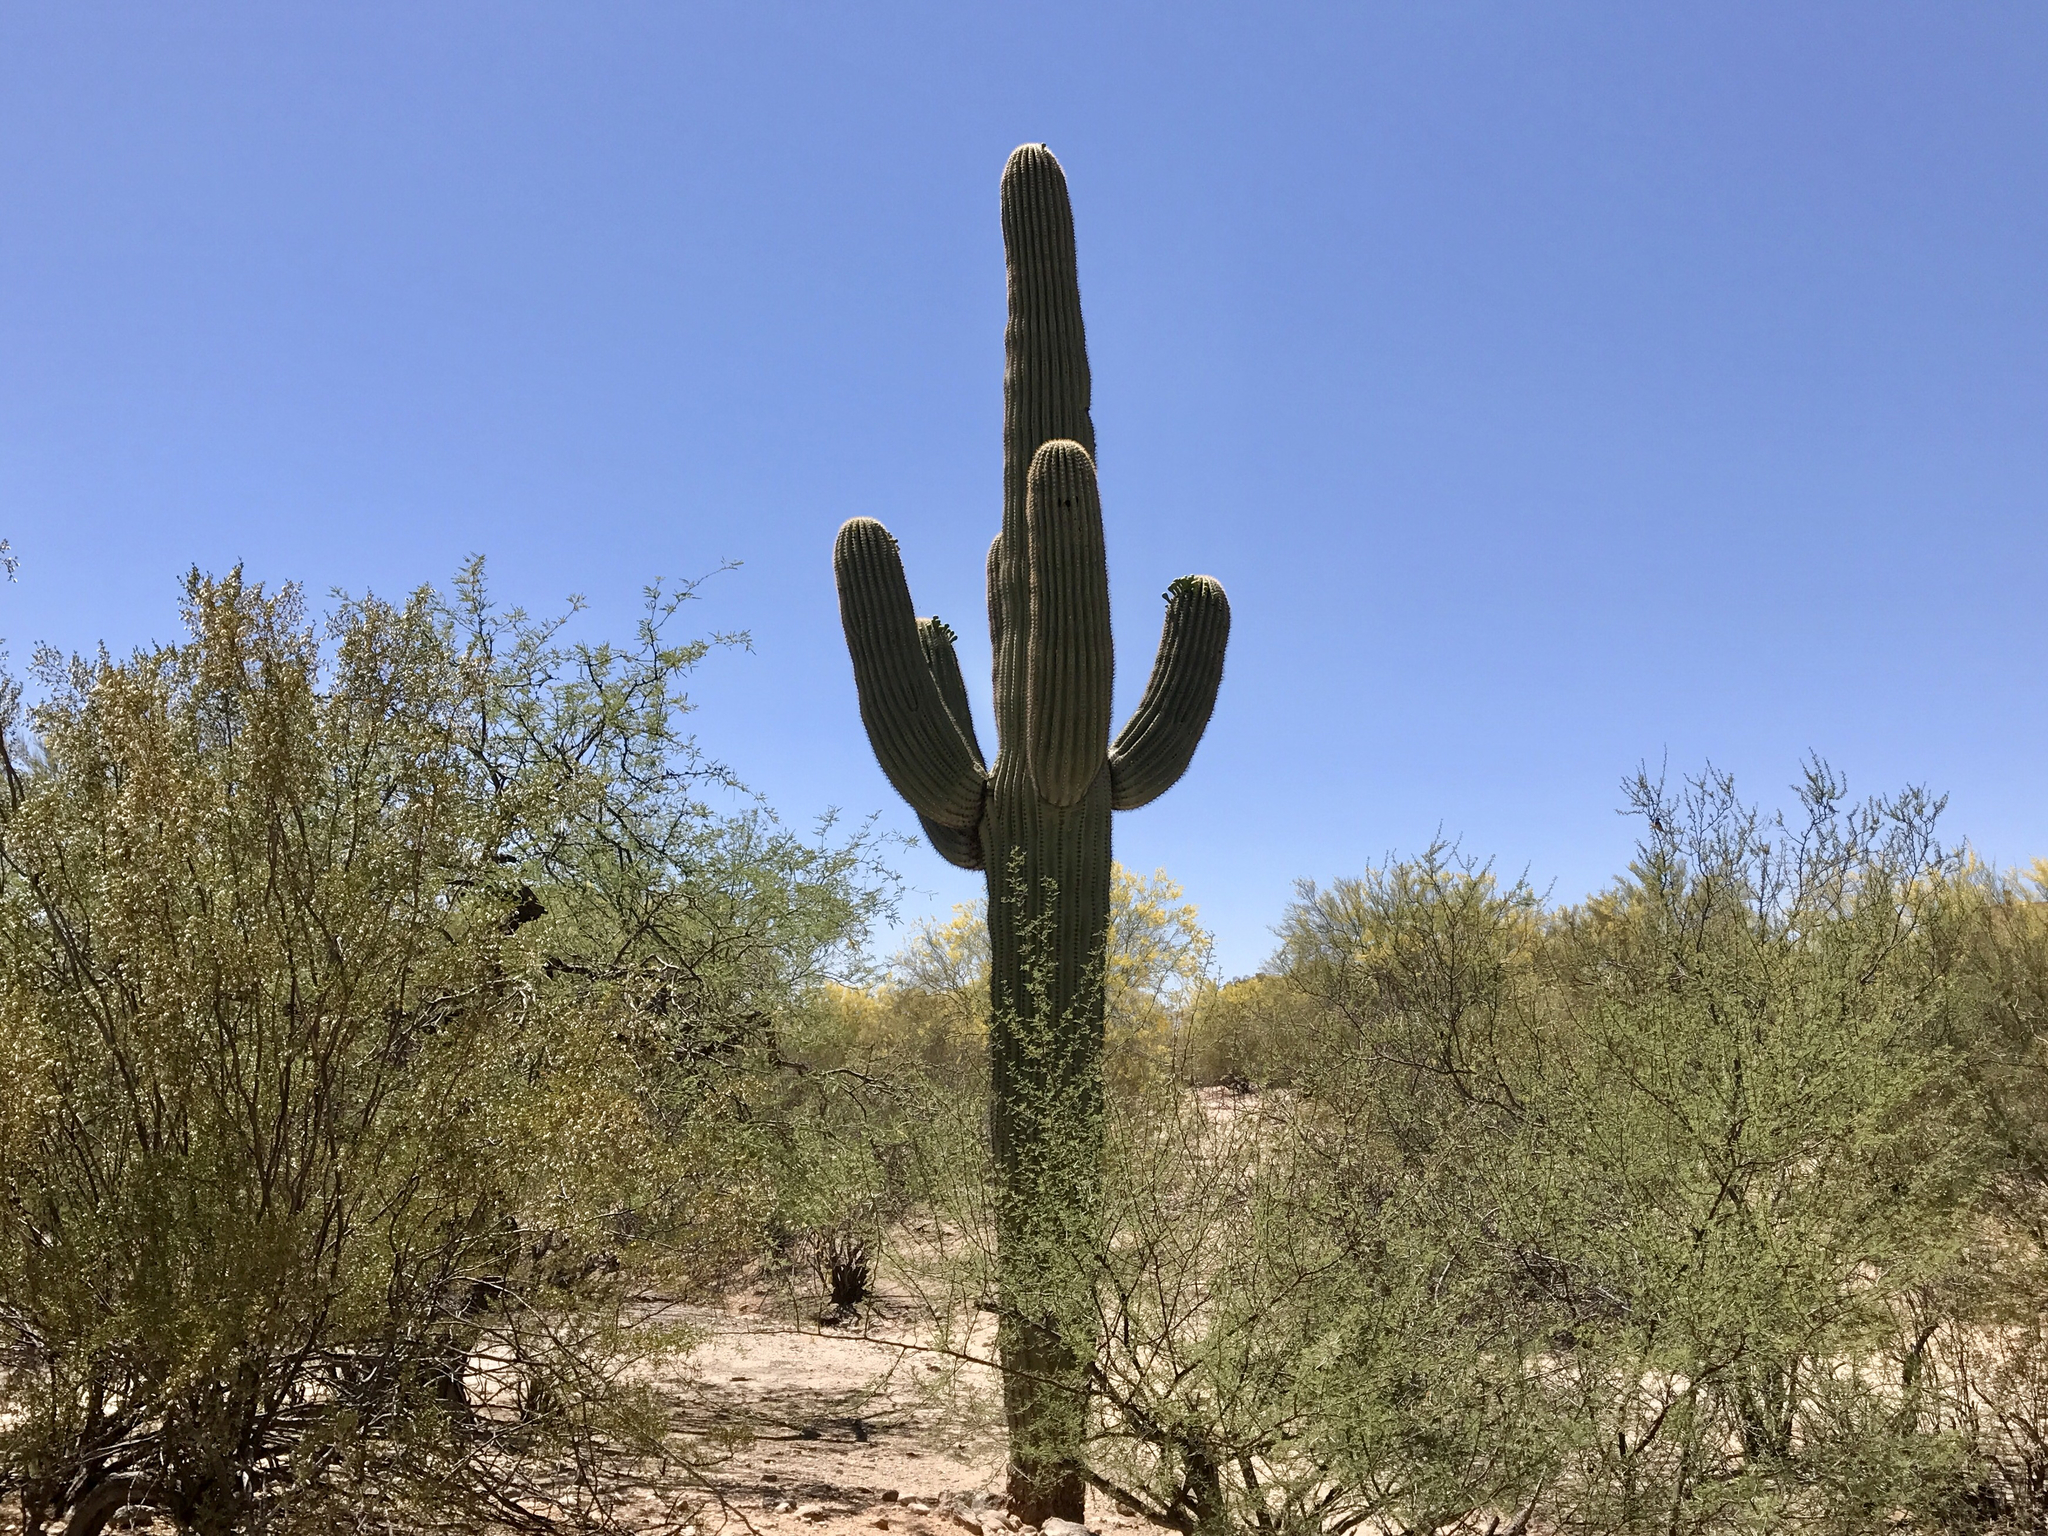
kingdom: Plantae
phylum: Tracheophyta
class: Magnoliopsida
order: Caryophyllales
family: Cactaceae
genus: Carnegiea
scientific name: Carnegiea gigantea
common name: Saguaro
